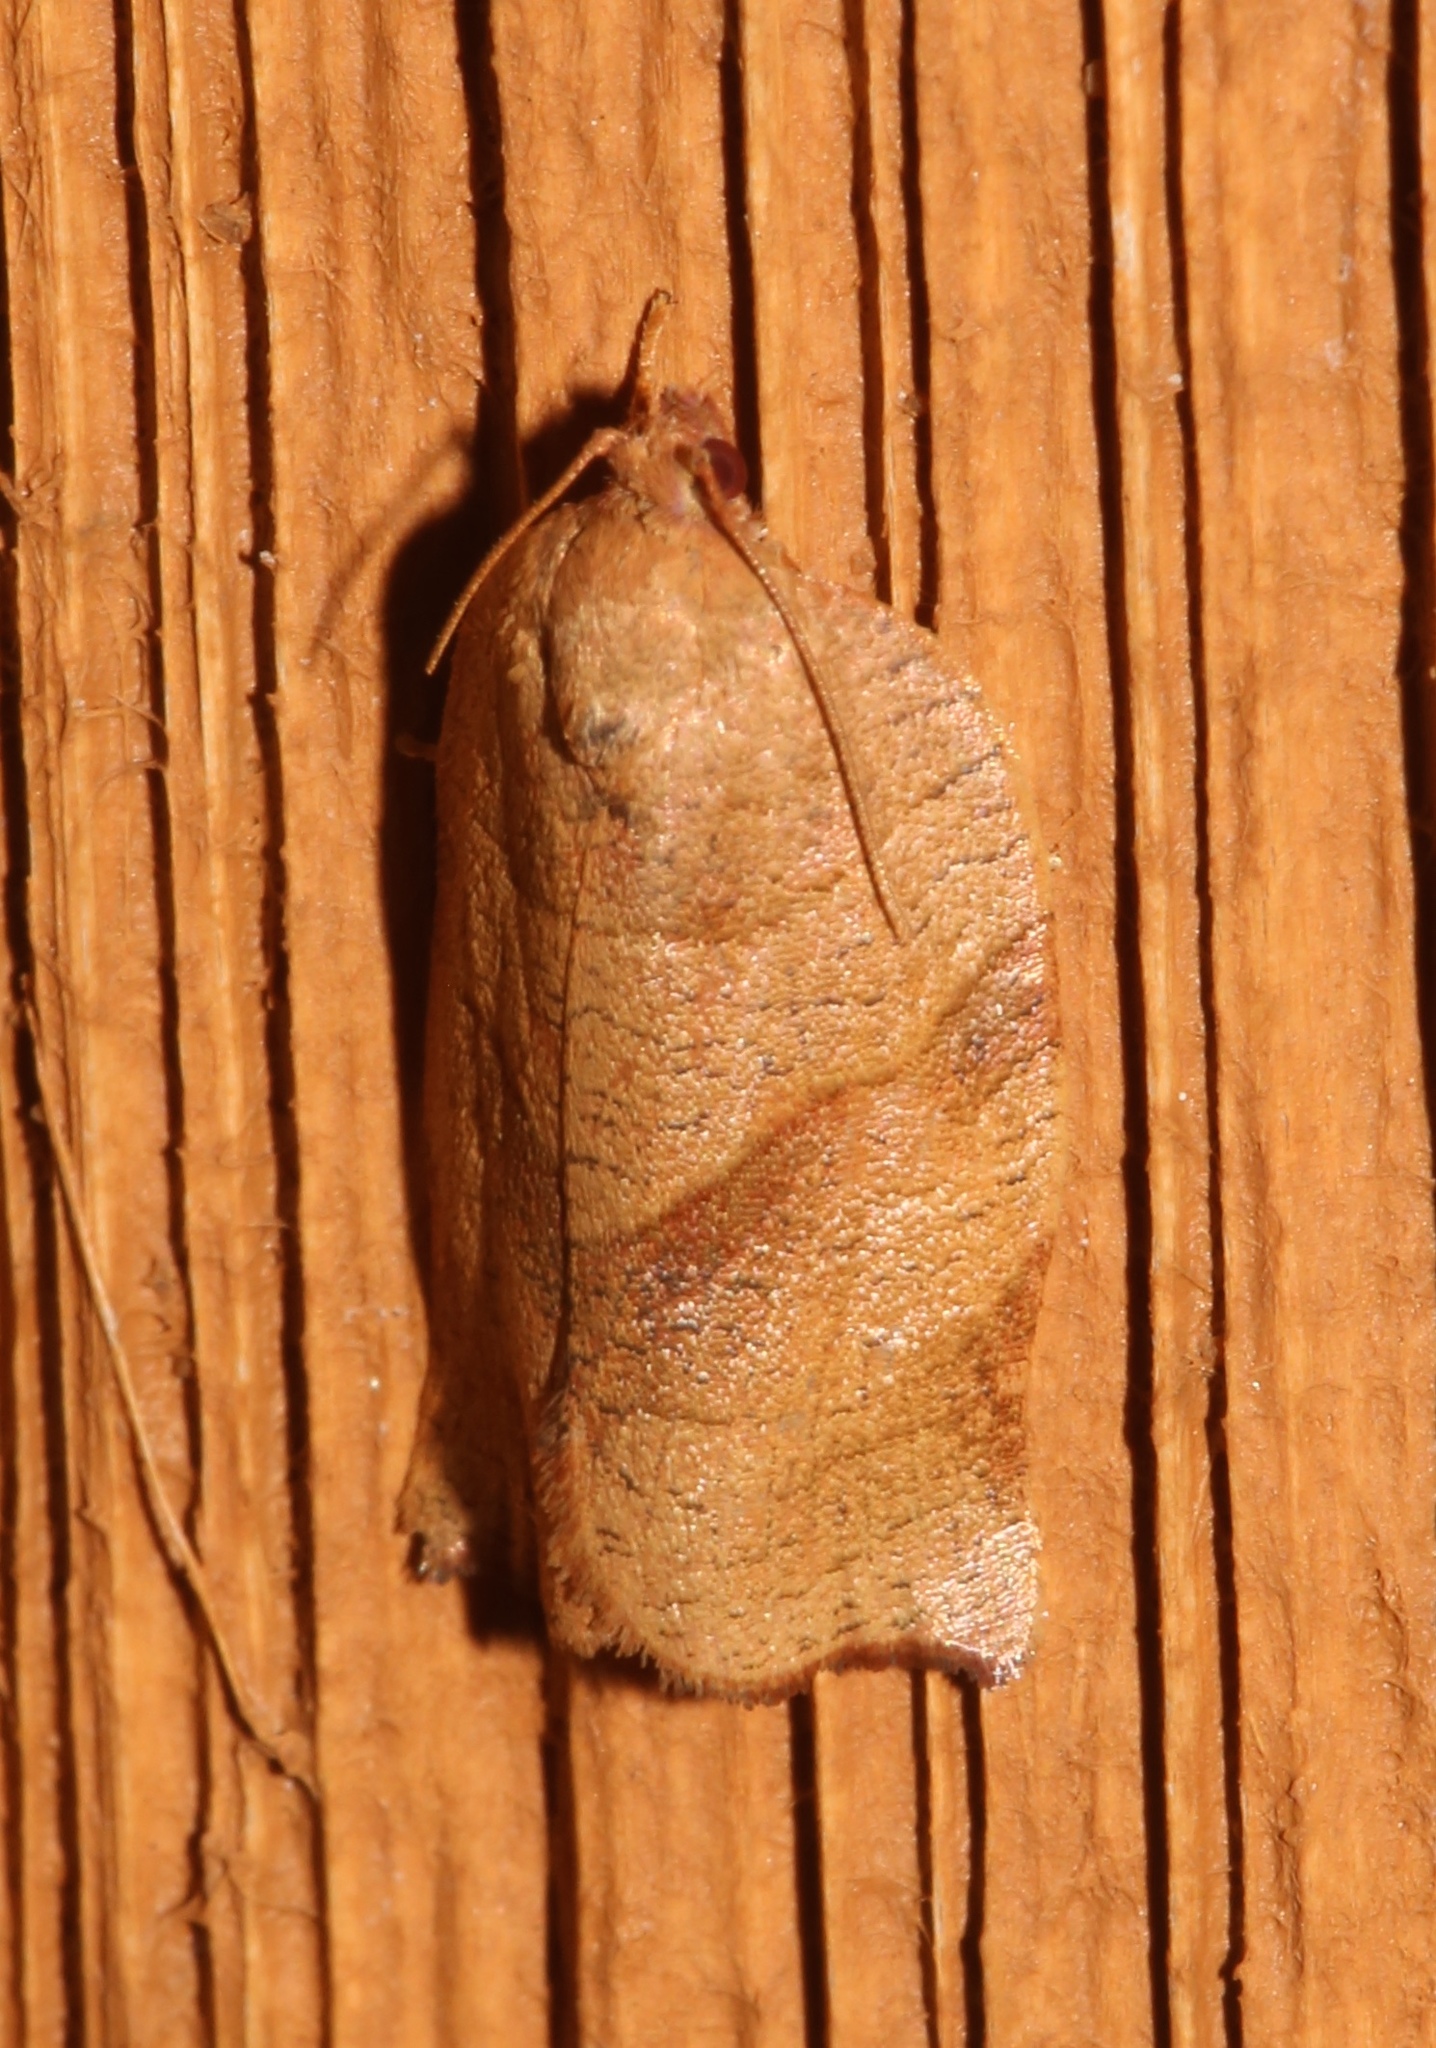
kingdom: Animalia
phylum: Arthropoda
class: Insecta
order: Lepidoptera
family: Tortricidae
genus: Choristoneura
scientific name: Choristoneura rosaceana
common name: Oblique-banded leafroller moth
